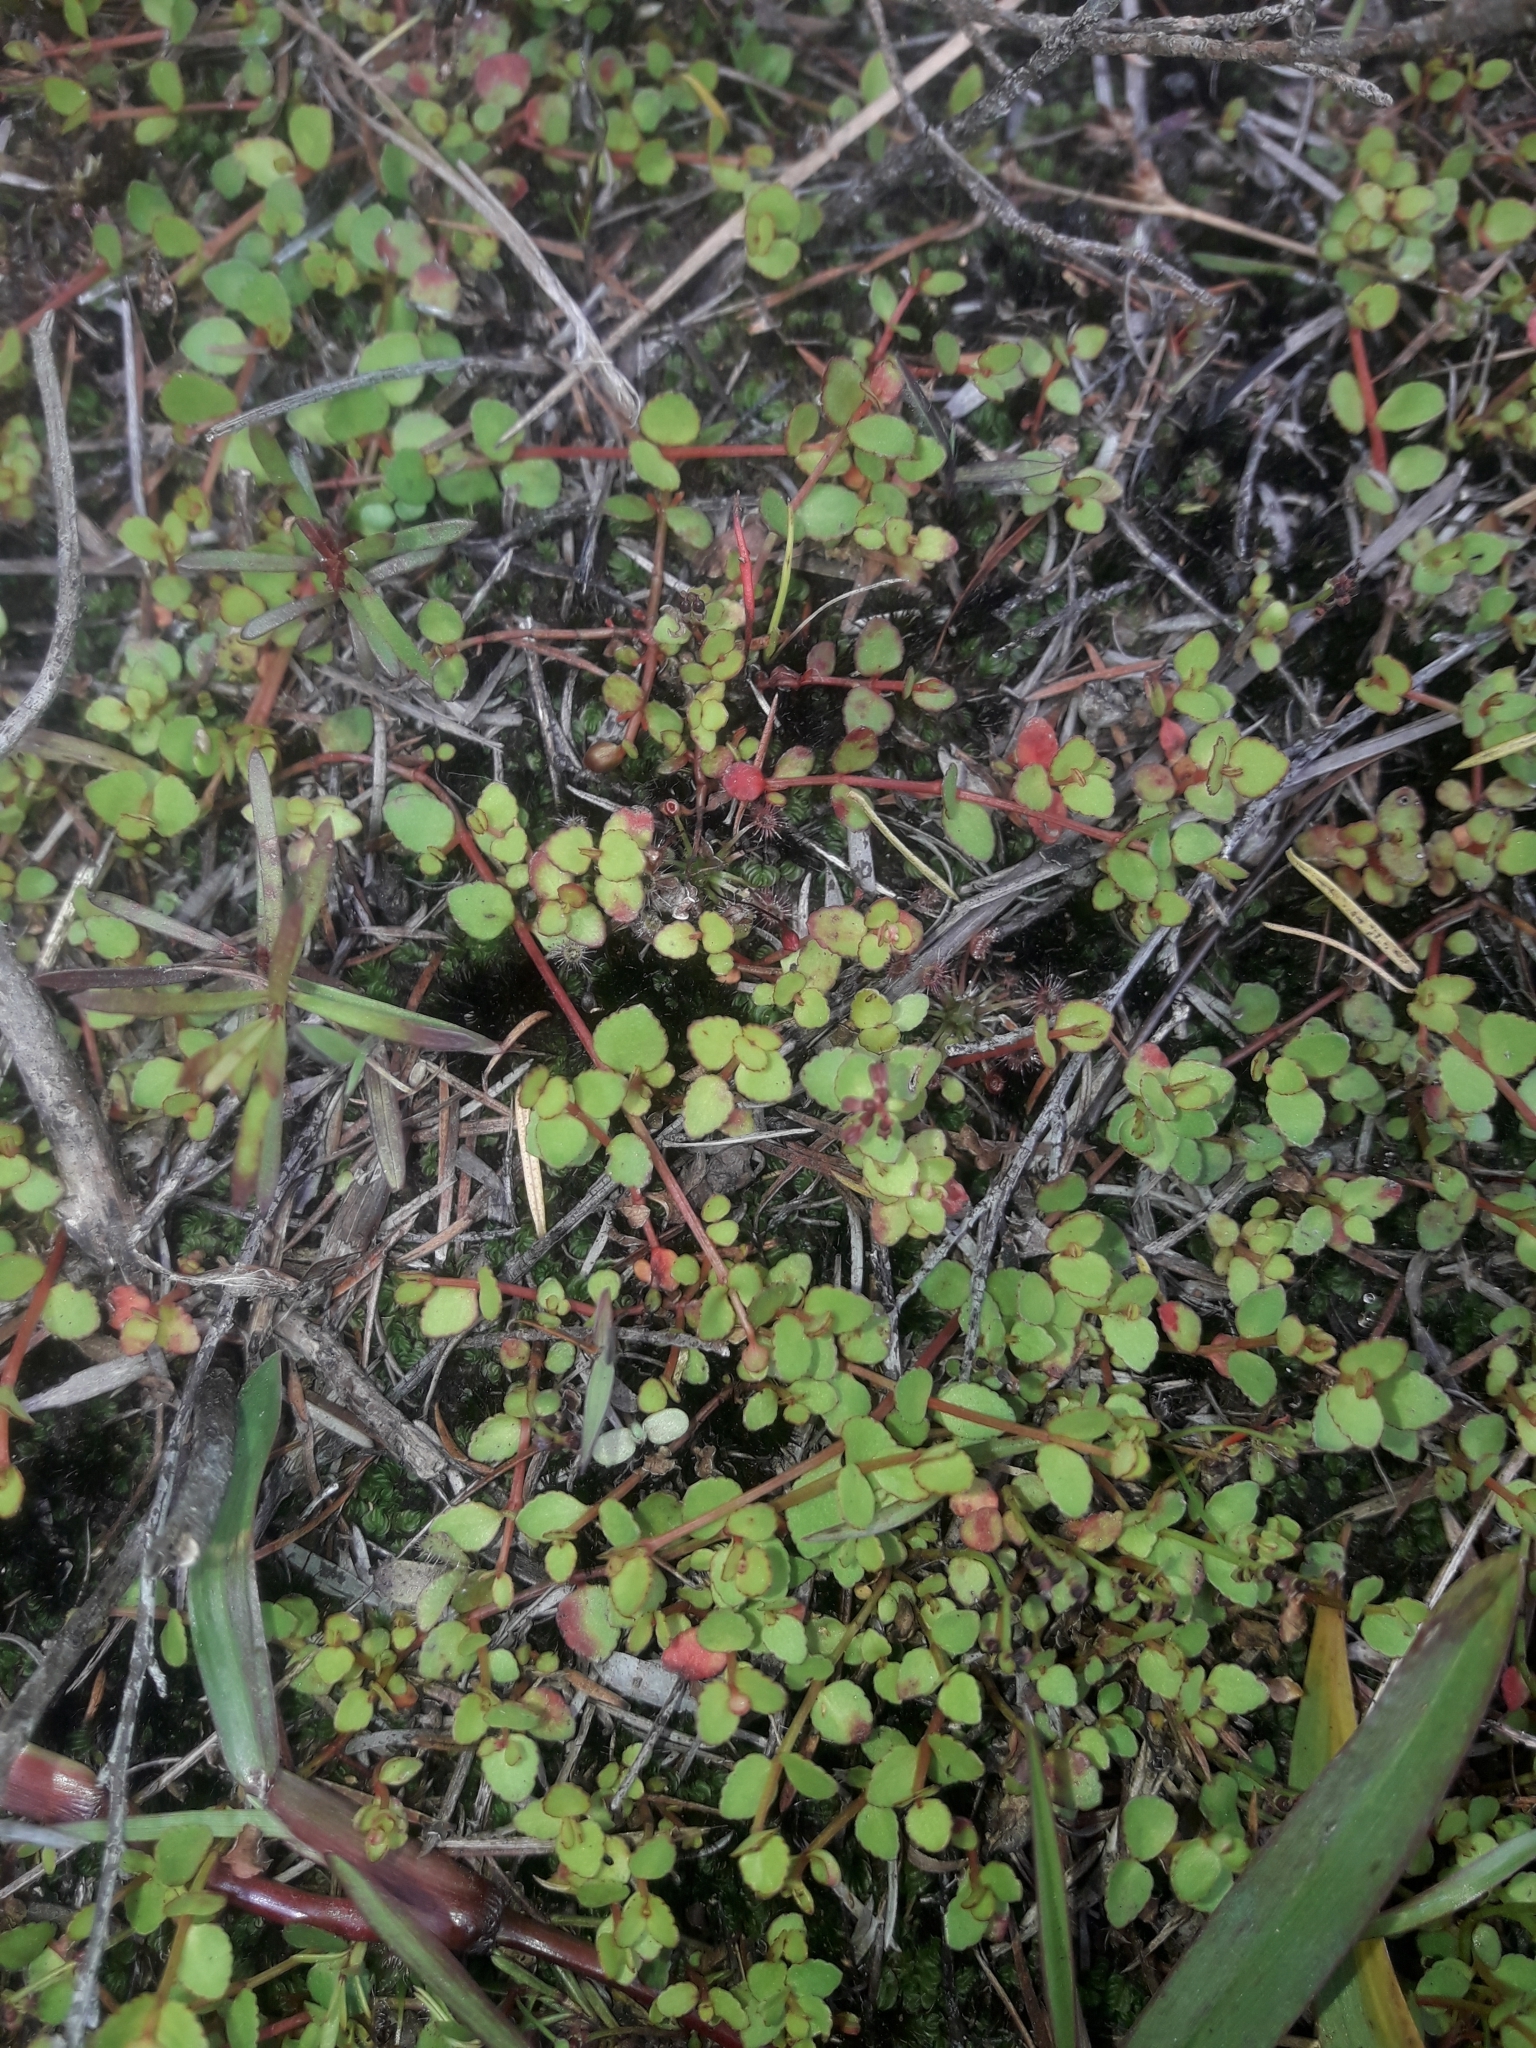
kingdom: Plantae
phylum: Tracheophyta
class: Magnoliopsida
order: Saxifragales
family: Haloragaceae
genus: Gonocarpus
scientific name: Gonocarpus micranthus
